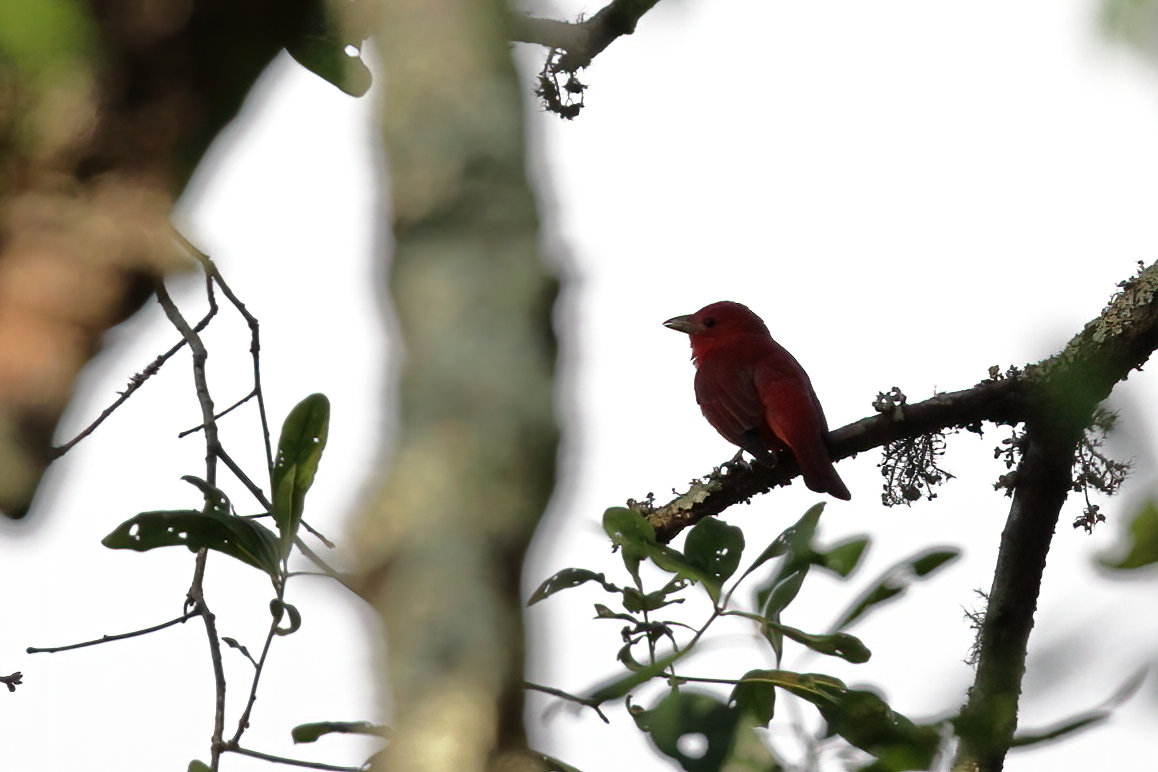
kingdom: Animalia
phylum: Chordata
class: Aves
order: Passeriformes
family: Cardinalidae
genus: Piranga
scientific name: Piranga rubra
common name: Summer tanager
